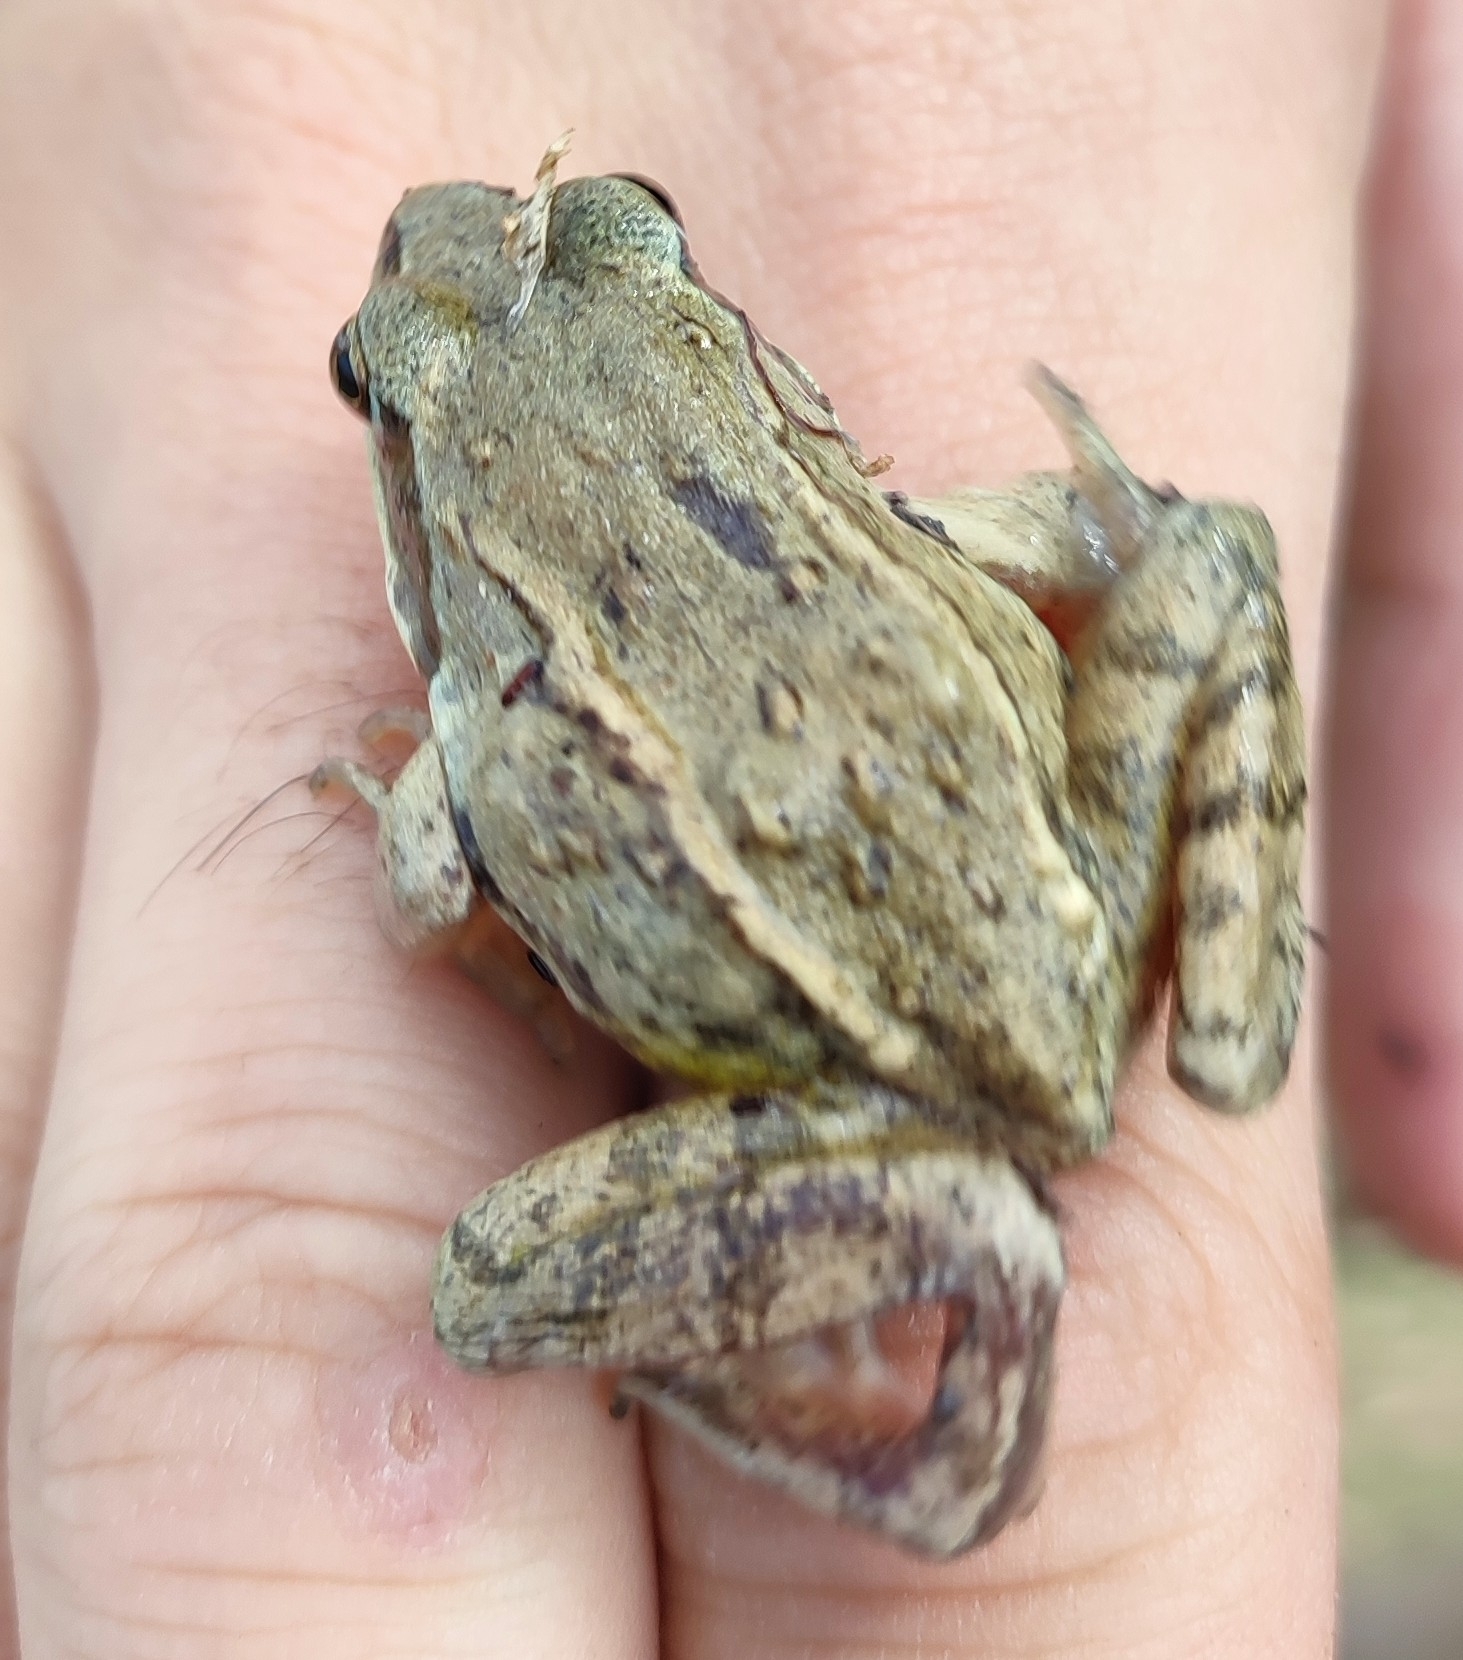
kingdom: Animalia
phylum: Chordata
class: Amphibia
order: Anura
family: Ranidae
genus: Rana
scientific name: Rana arvalis
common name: Moor frog
